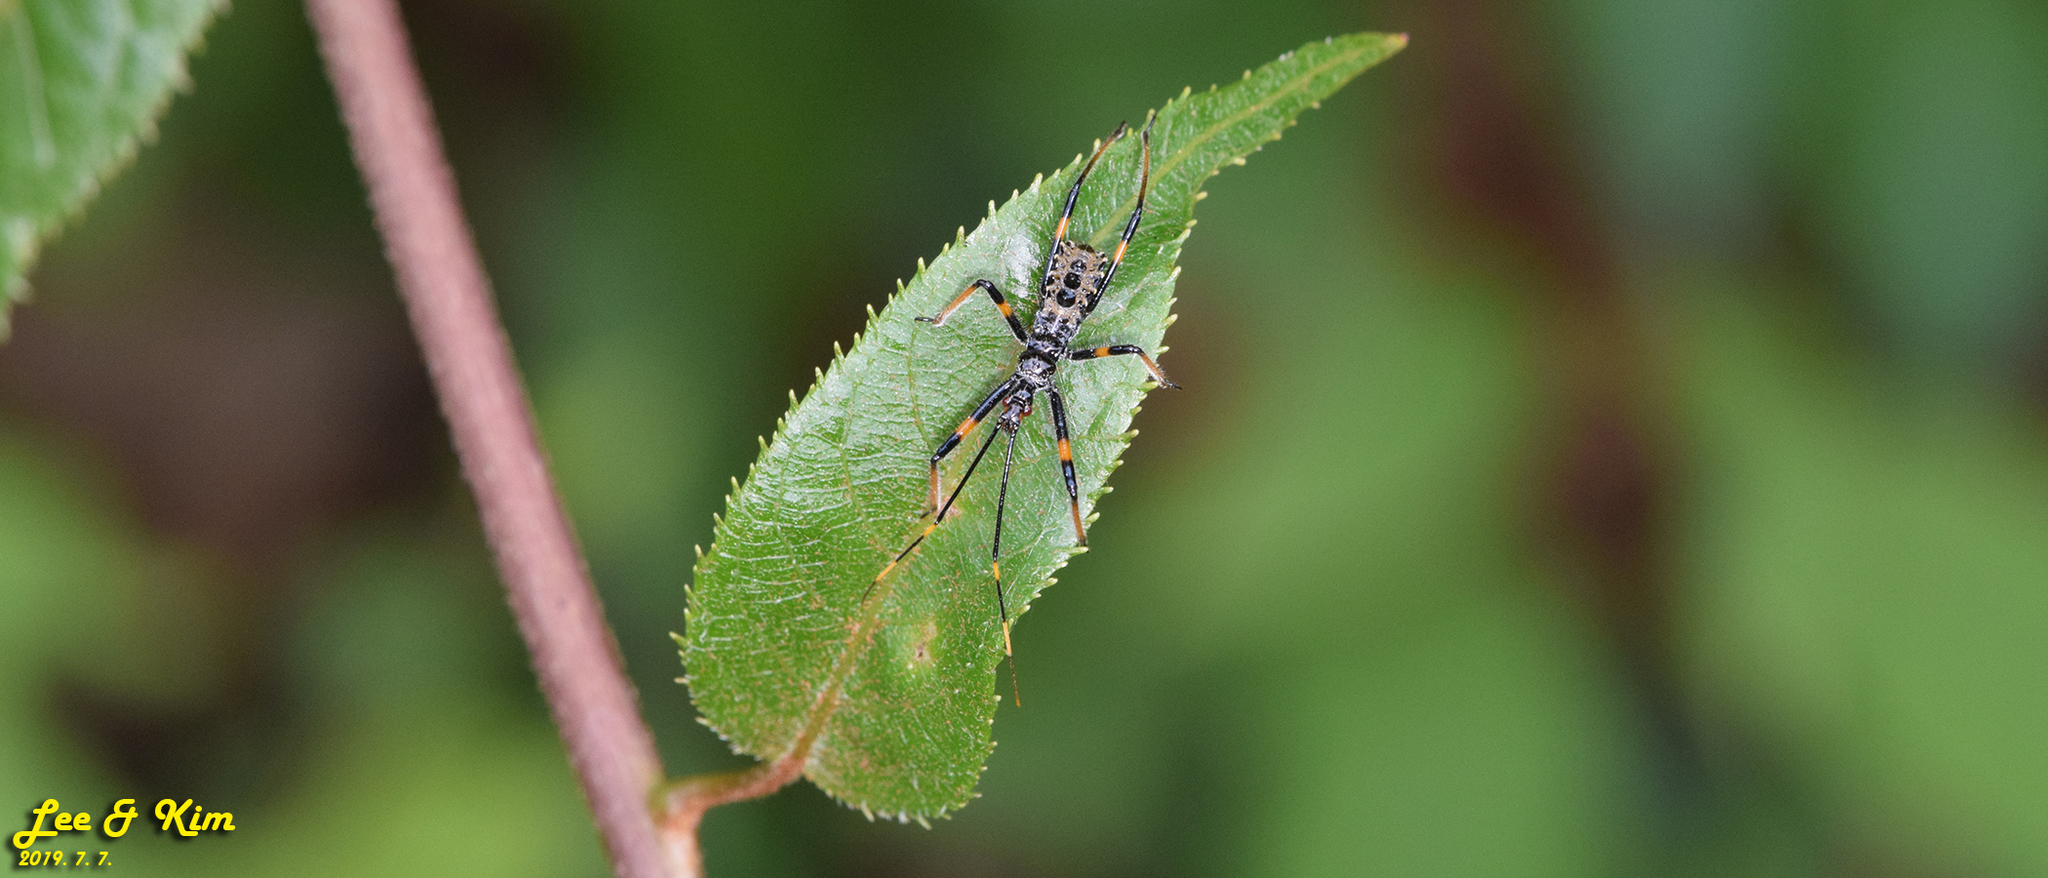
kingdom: Animalia
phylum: Arthropoda
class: Insecta
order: Hemiptera
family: Reduviidae
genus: Isyndus
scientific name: Isyndus obscurus
